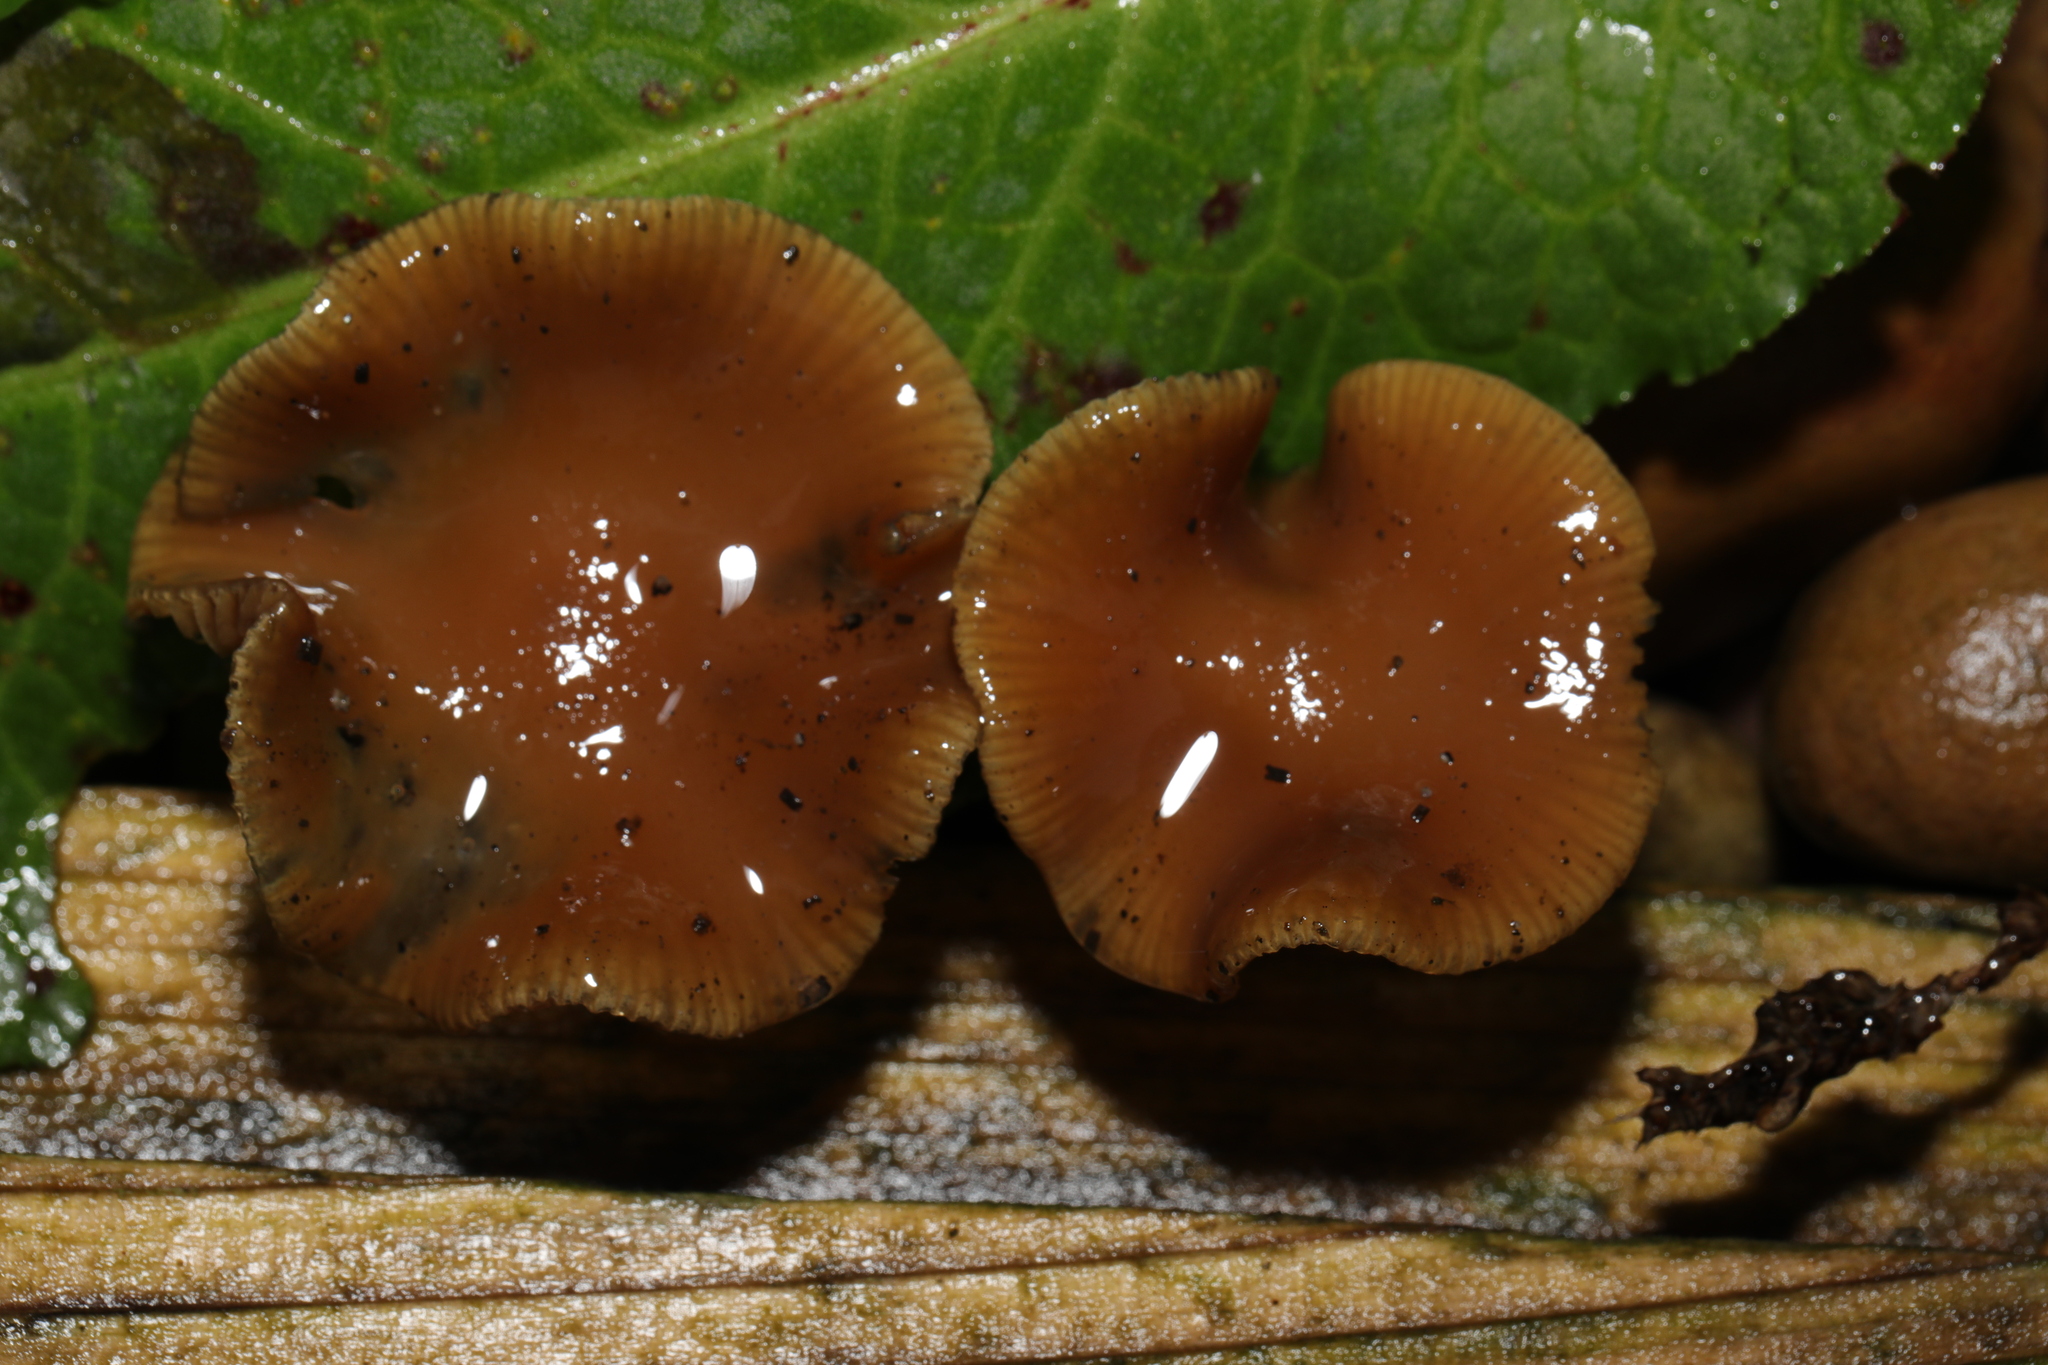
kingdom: Fungi
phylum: Basidiomycota
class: Agaricomycetes
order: Agaricales
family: Hymenogastraceae
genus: Psilocybe
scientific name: Psilocybe cyanescens
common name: Blueleg brownie
